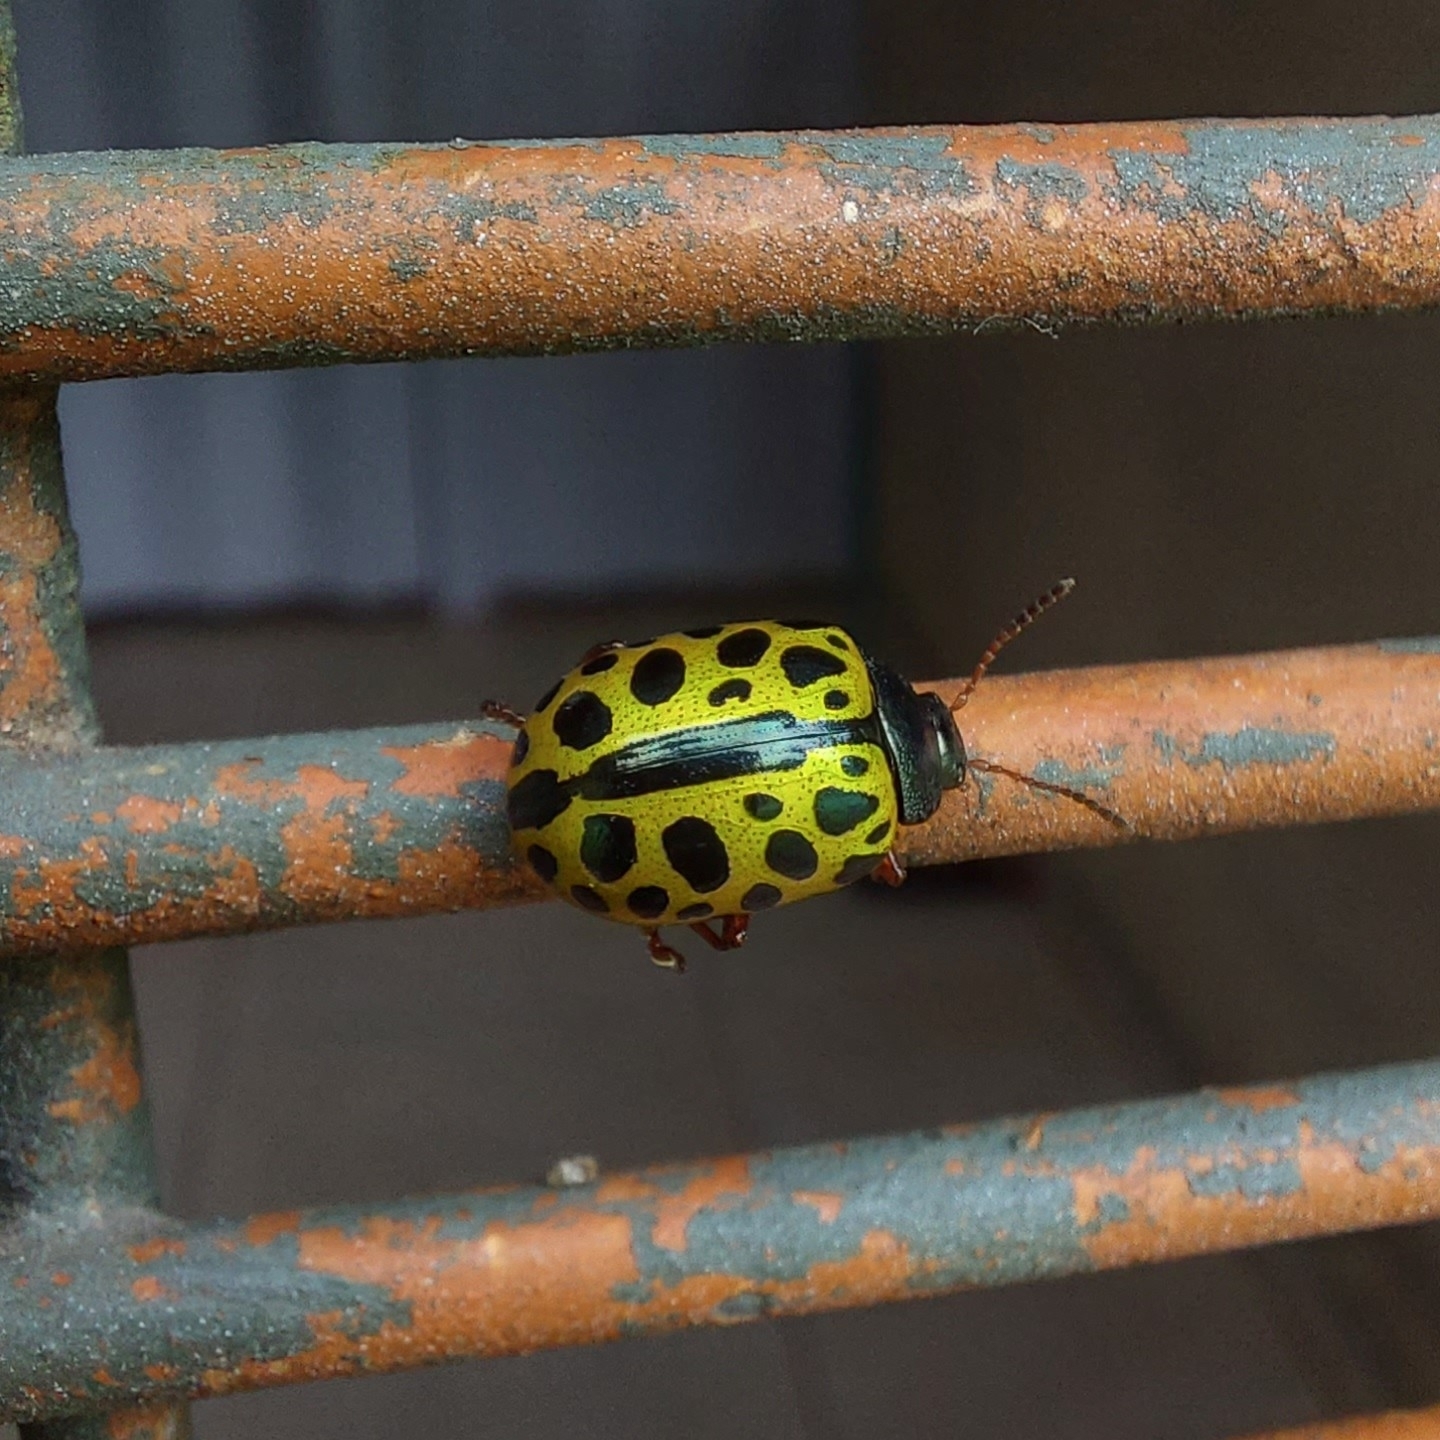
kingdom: Animalia
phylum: Arthropoda
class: Insecta
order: Coleoptera
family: Chrysomelidae
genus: Calligrapha
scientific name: Calligrapha polyspila
